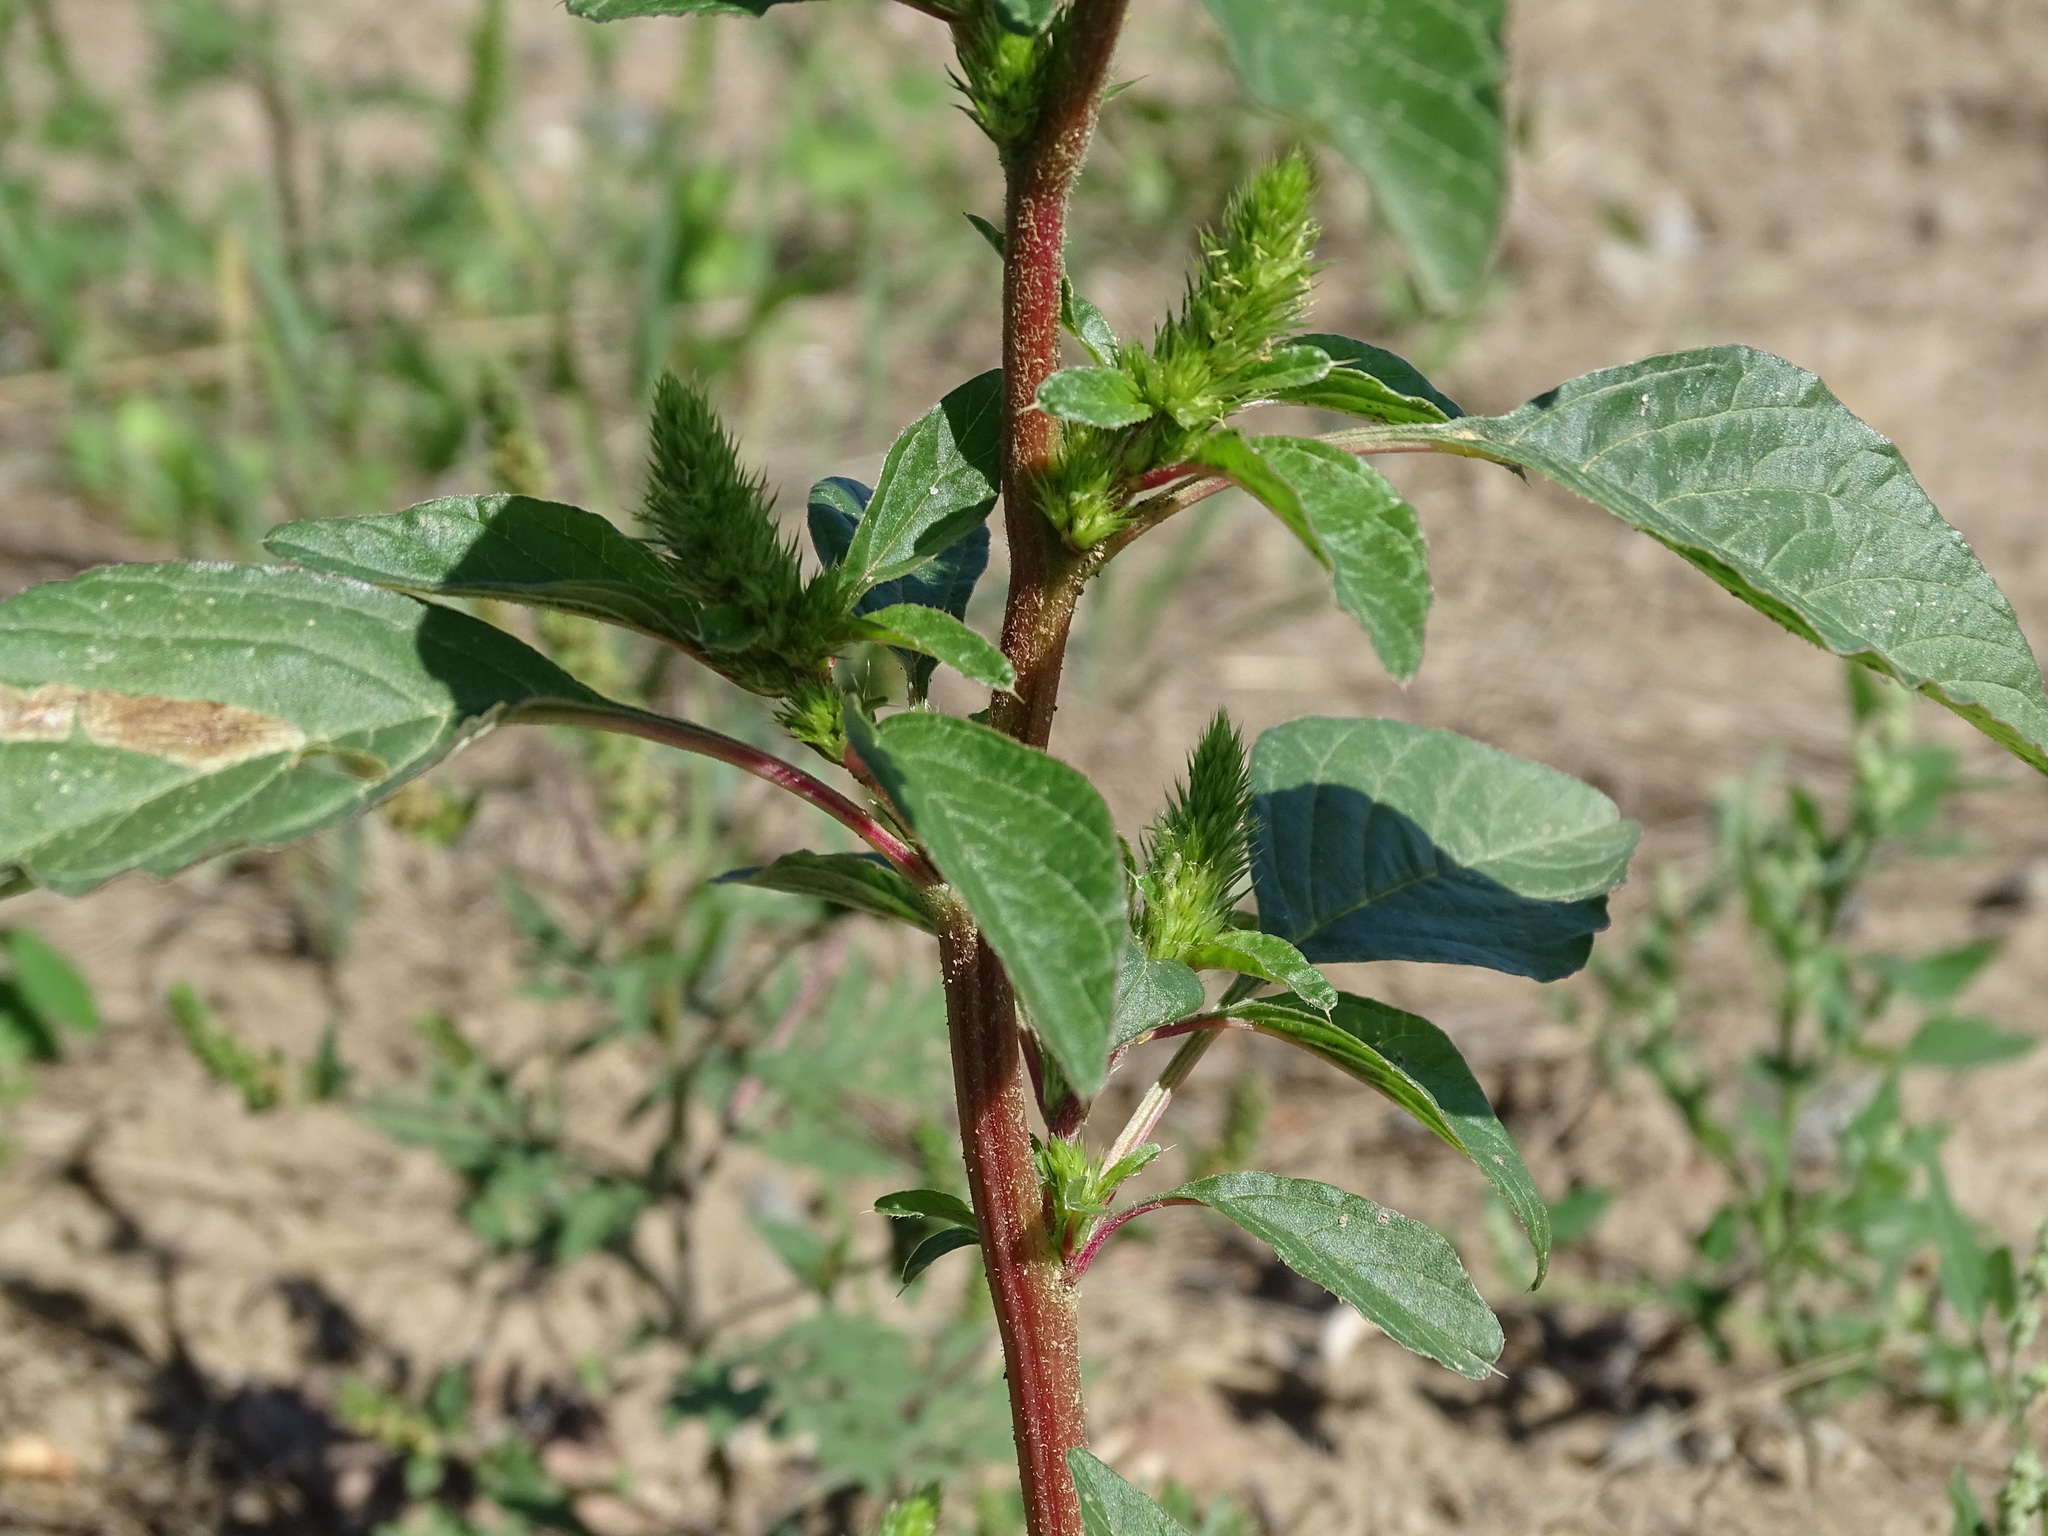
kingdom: Plantae
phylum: Tracheophyta
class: Magnoliopsida
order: Caryophyllales
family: Amaranthaceae
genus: Amaranthus
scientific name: Amaranthus retroflexus
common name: Redroot amaranth
